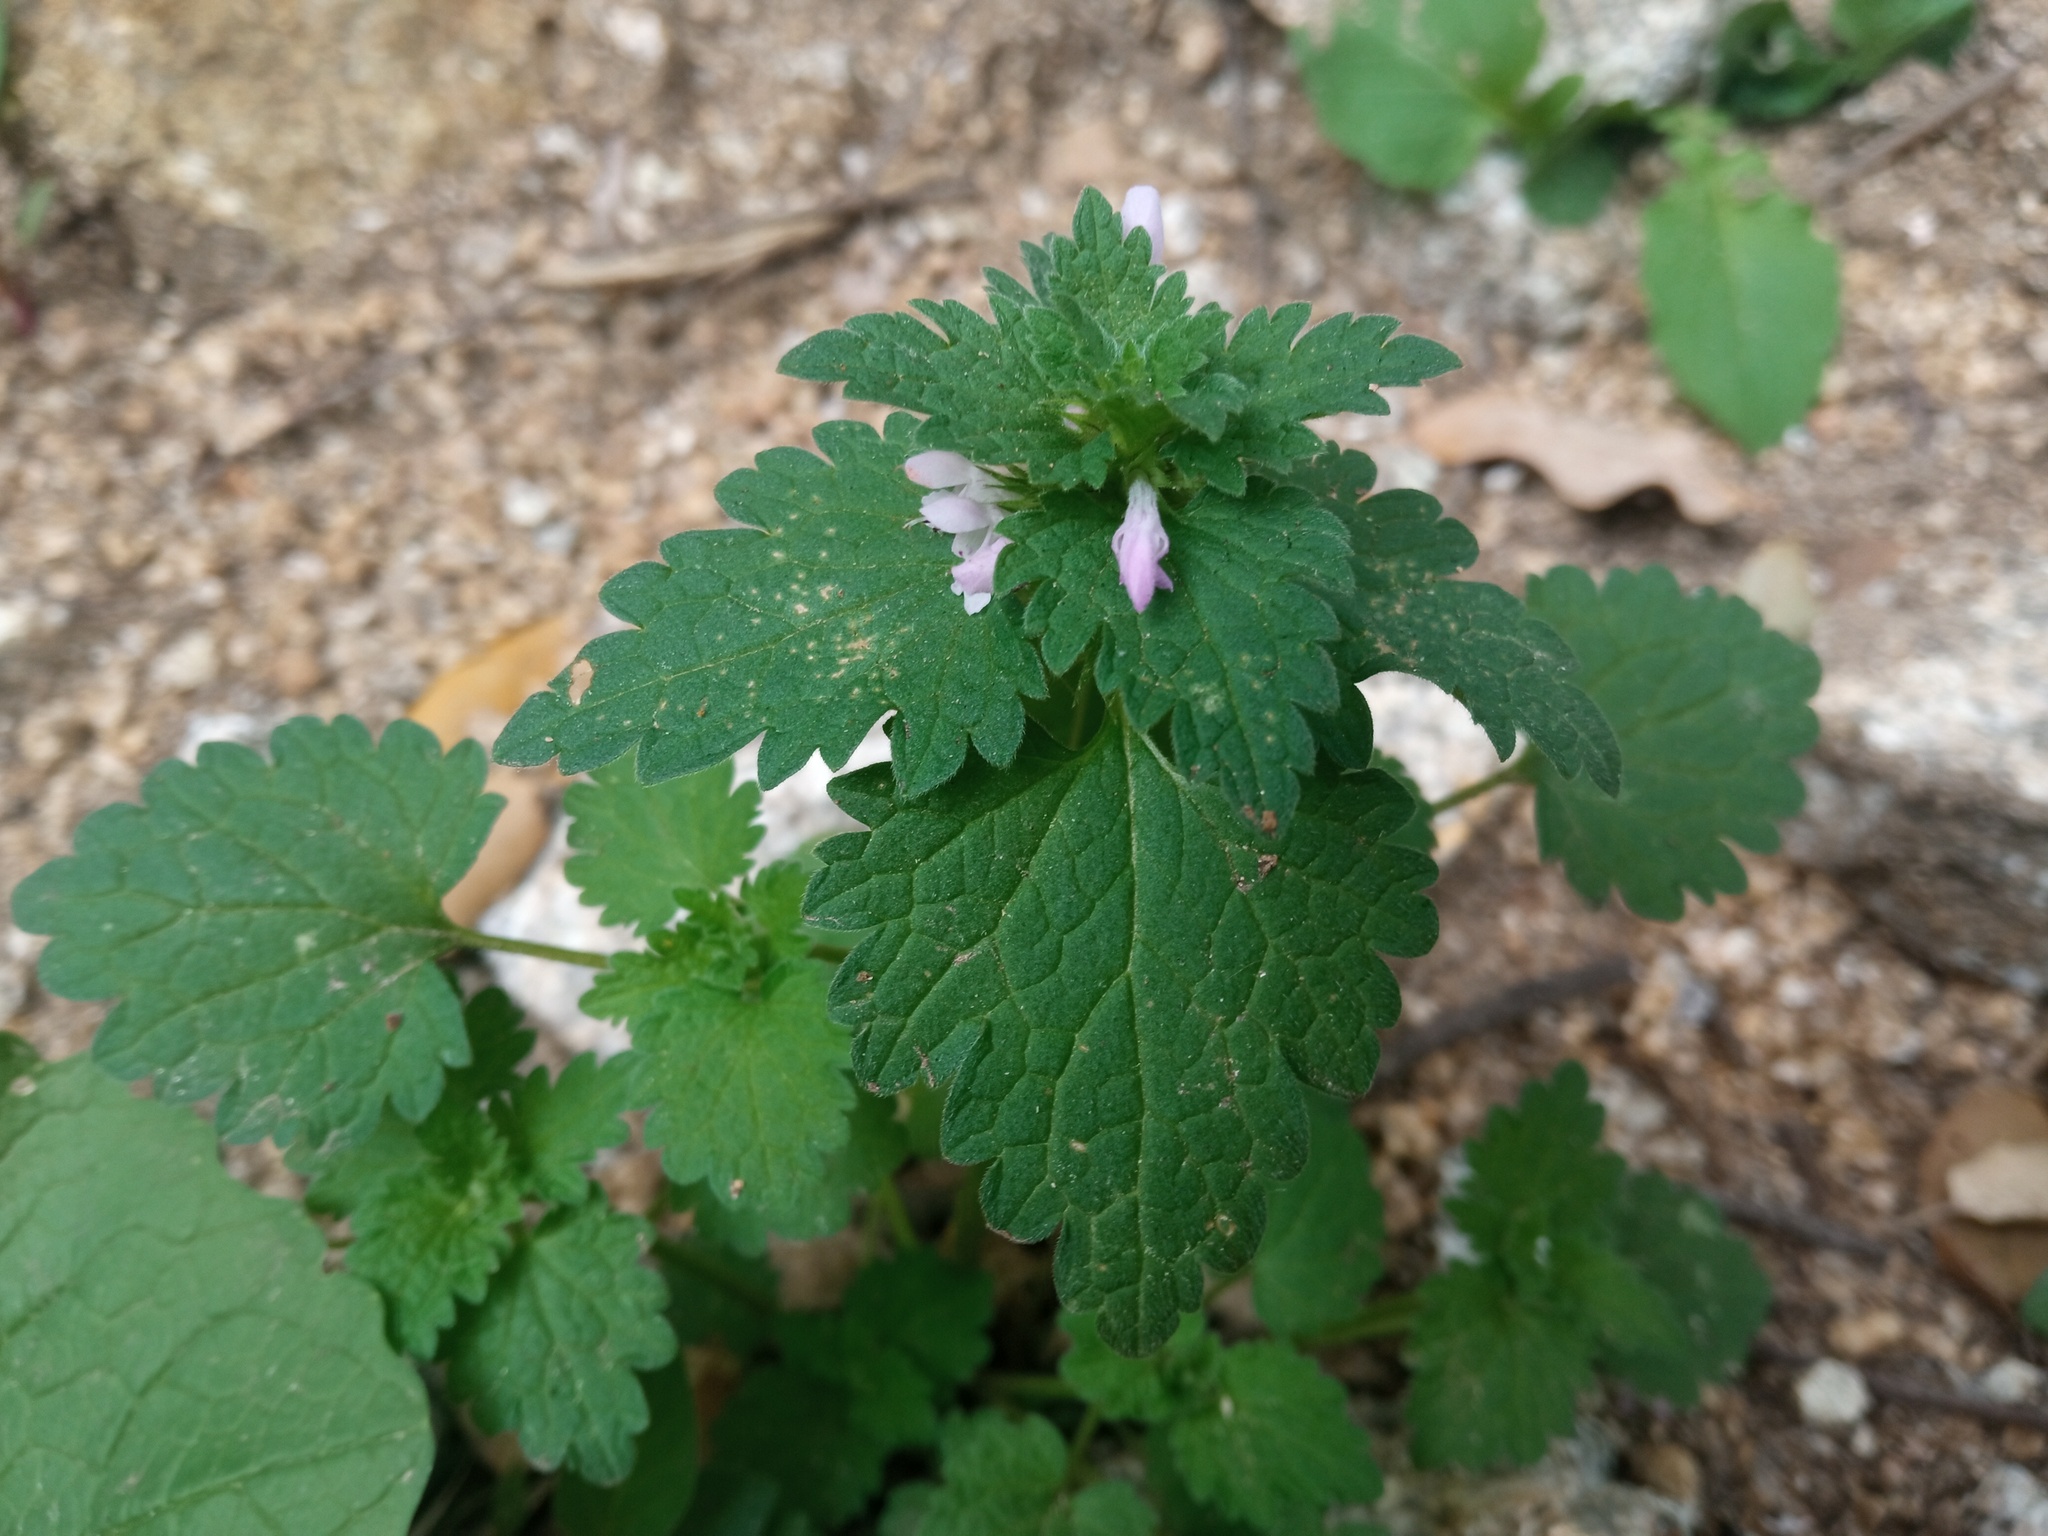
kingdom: Plantae
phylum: Tracheophyta
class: Magnoliopsida
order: Lamiales
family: Lamiaceae
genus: Lamium
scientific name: Lamium hybridum
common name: Cut-leaved dead-nettle
